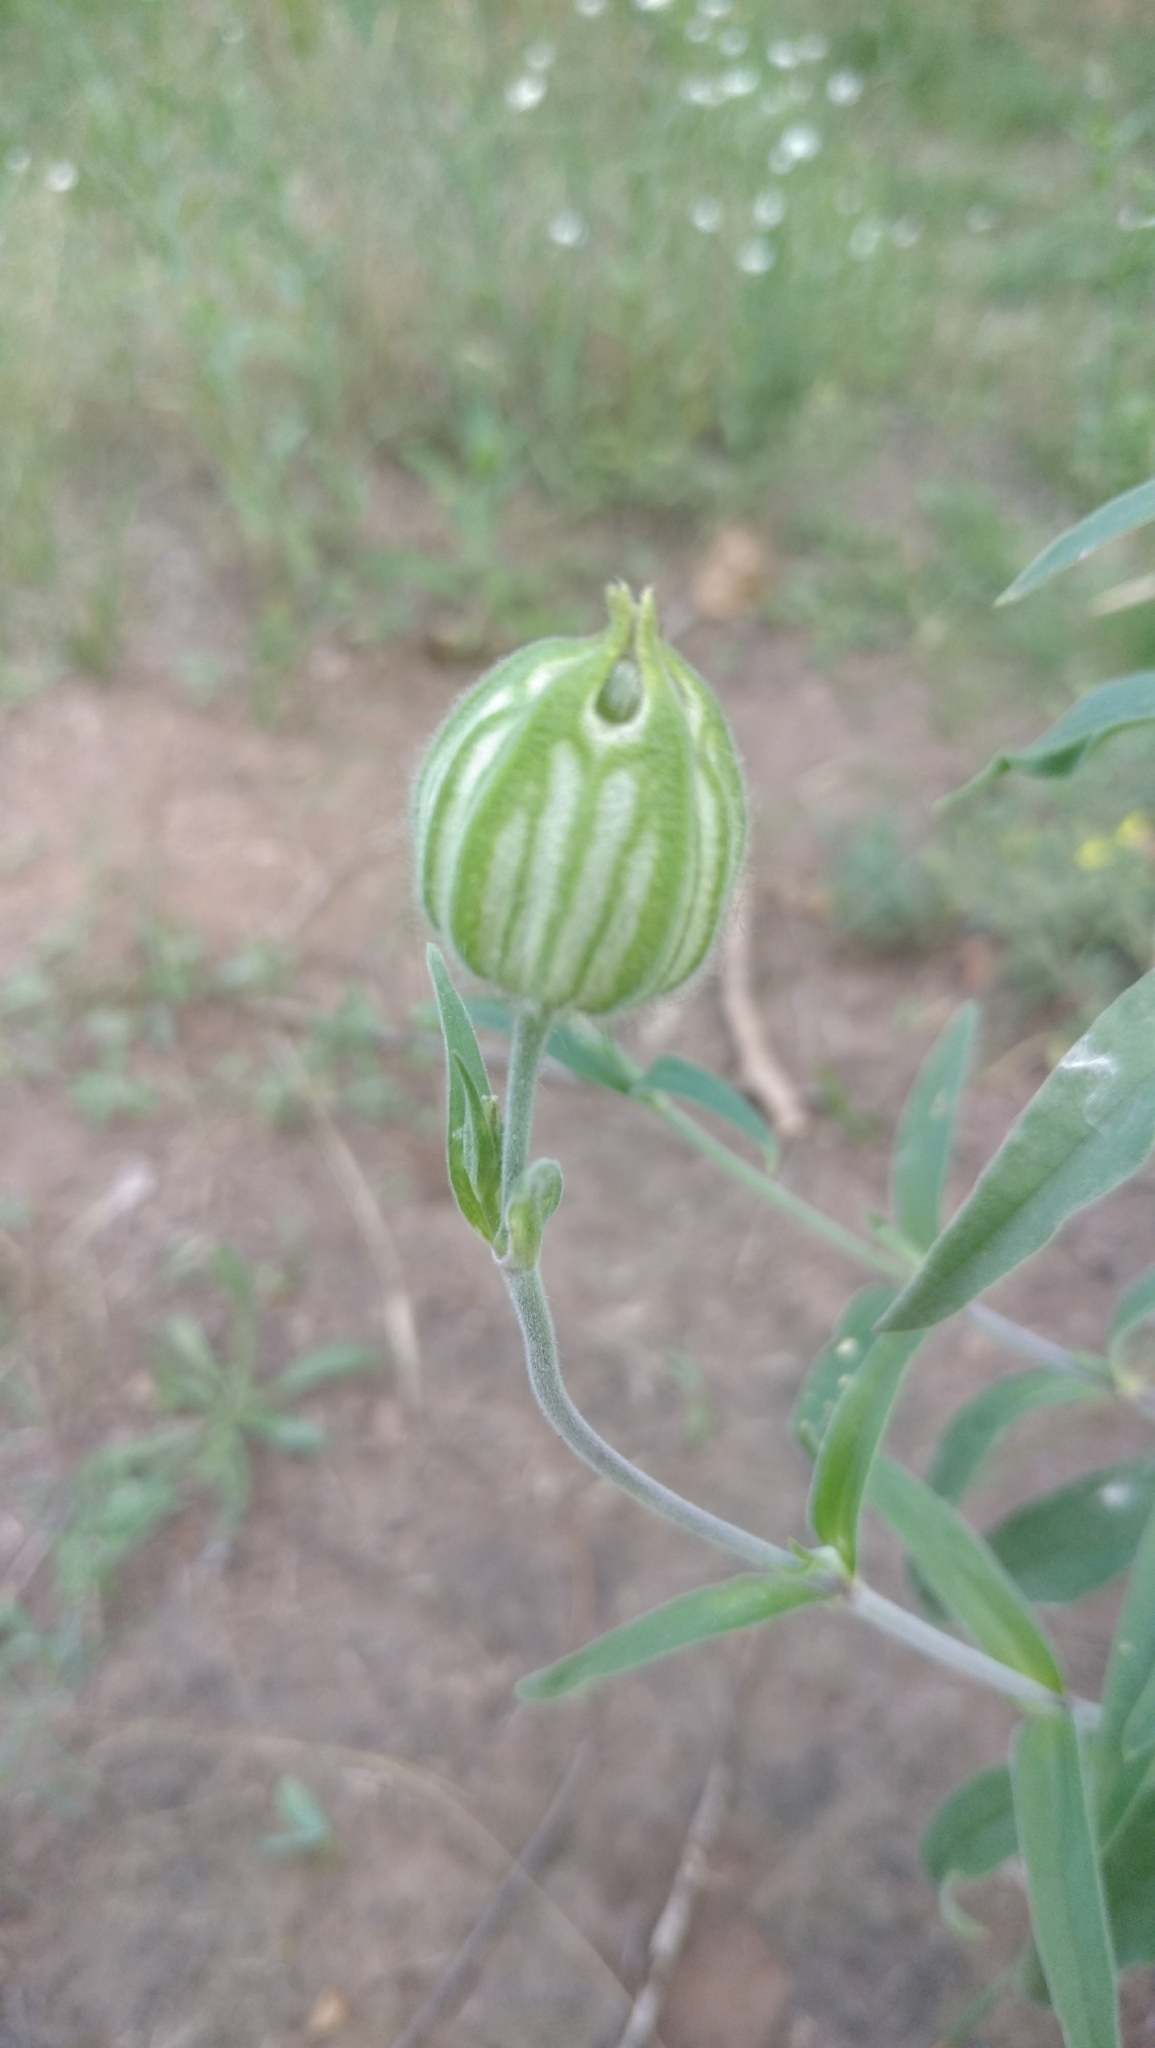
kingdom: Plantae
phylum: Tracheophyta
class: Magnoliopsida
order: Caryophyllales
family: Caryophyllaceae
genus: Silene
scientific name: Silene latifolia
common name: White campion
